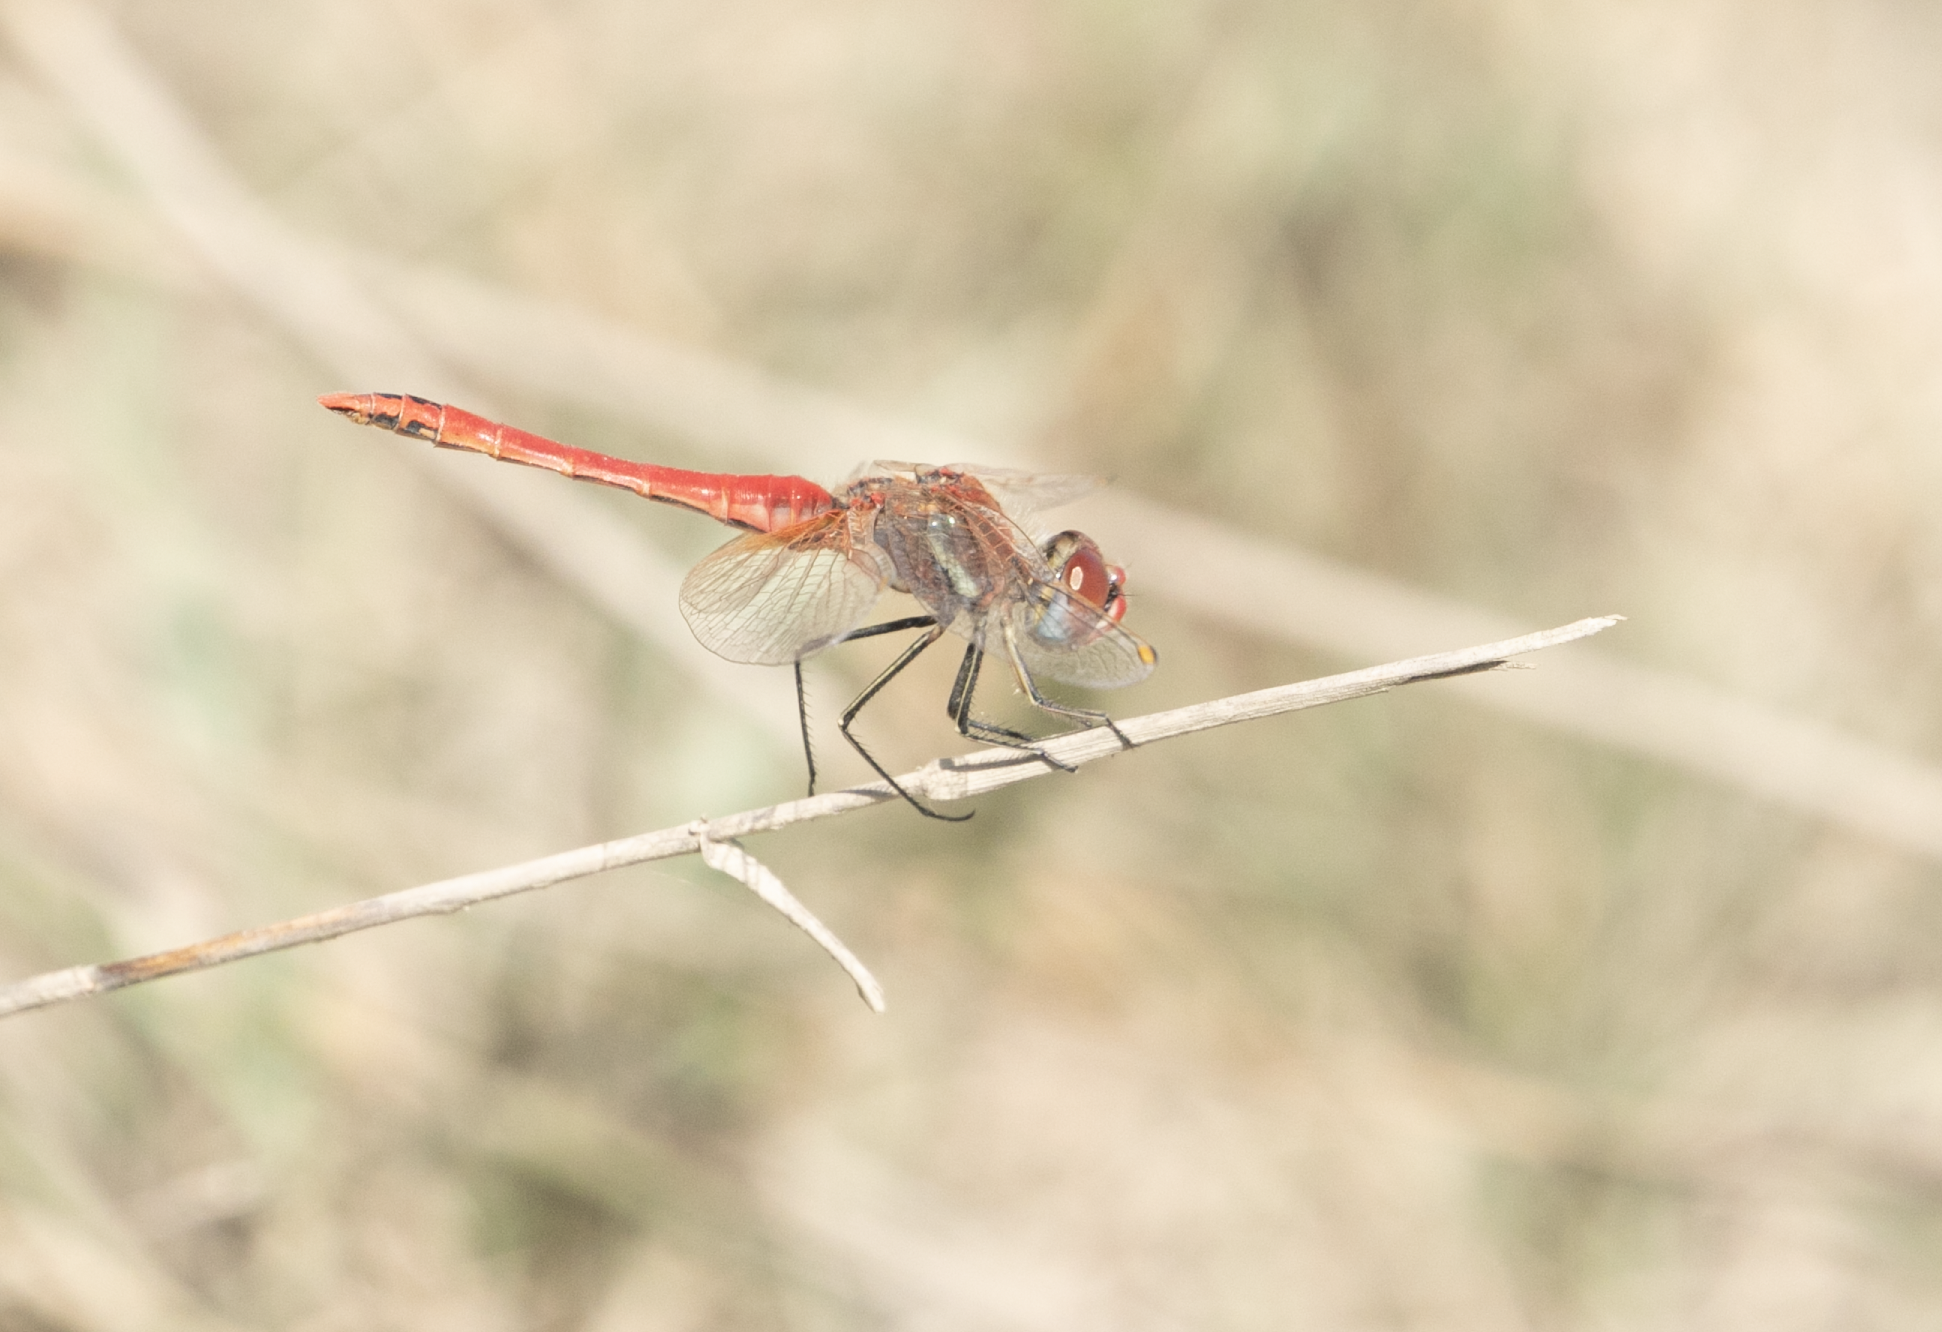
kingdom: Animalia
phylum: Arthropoda
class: Insecta
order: Odonata
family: Libellulidae
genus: Sympetrum
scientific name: Sympetrum fonscolombii
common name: Red-veined darter
